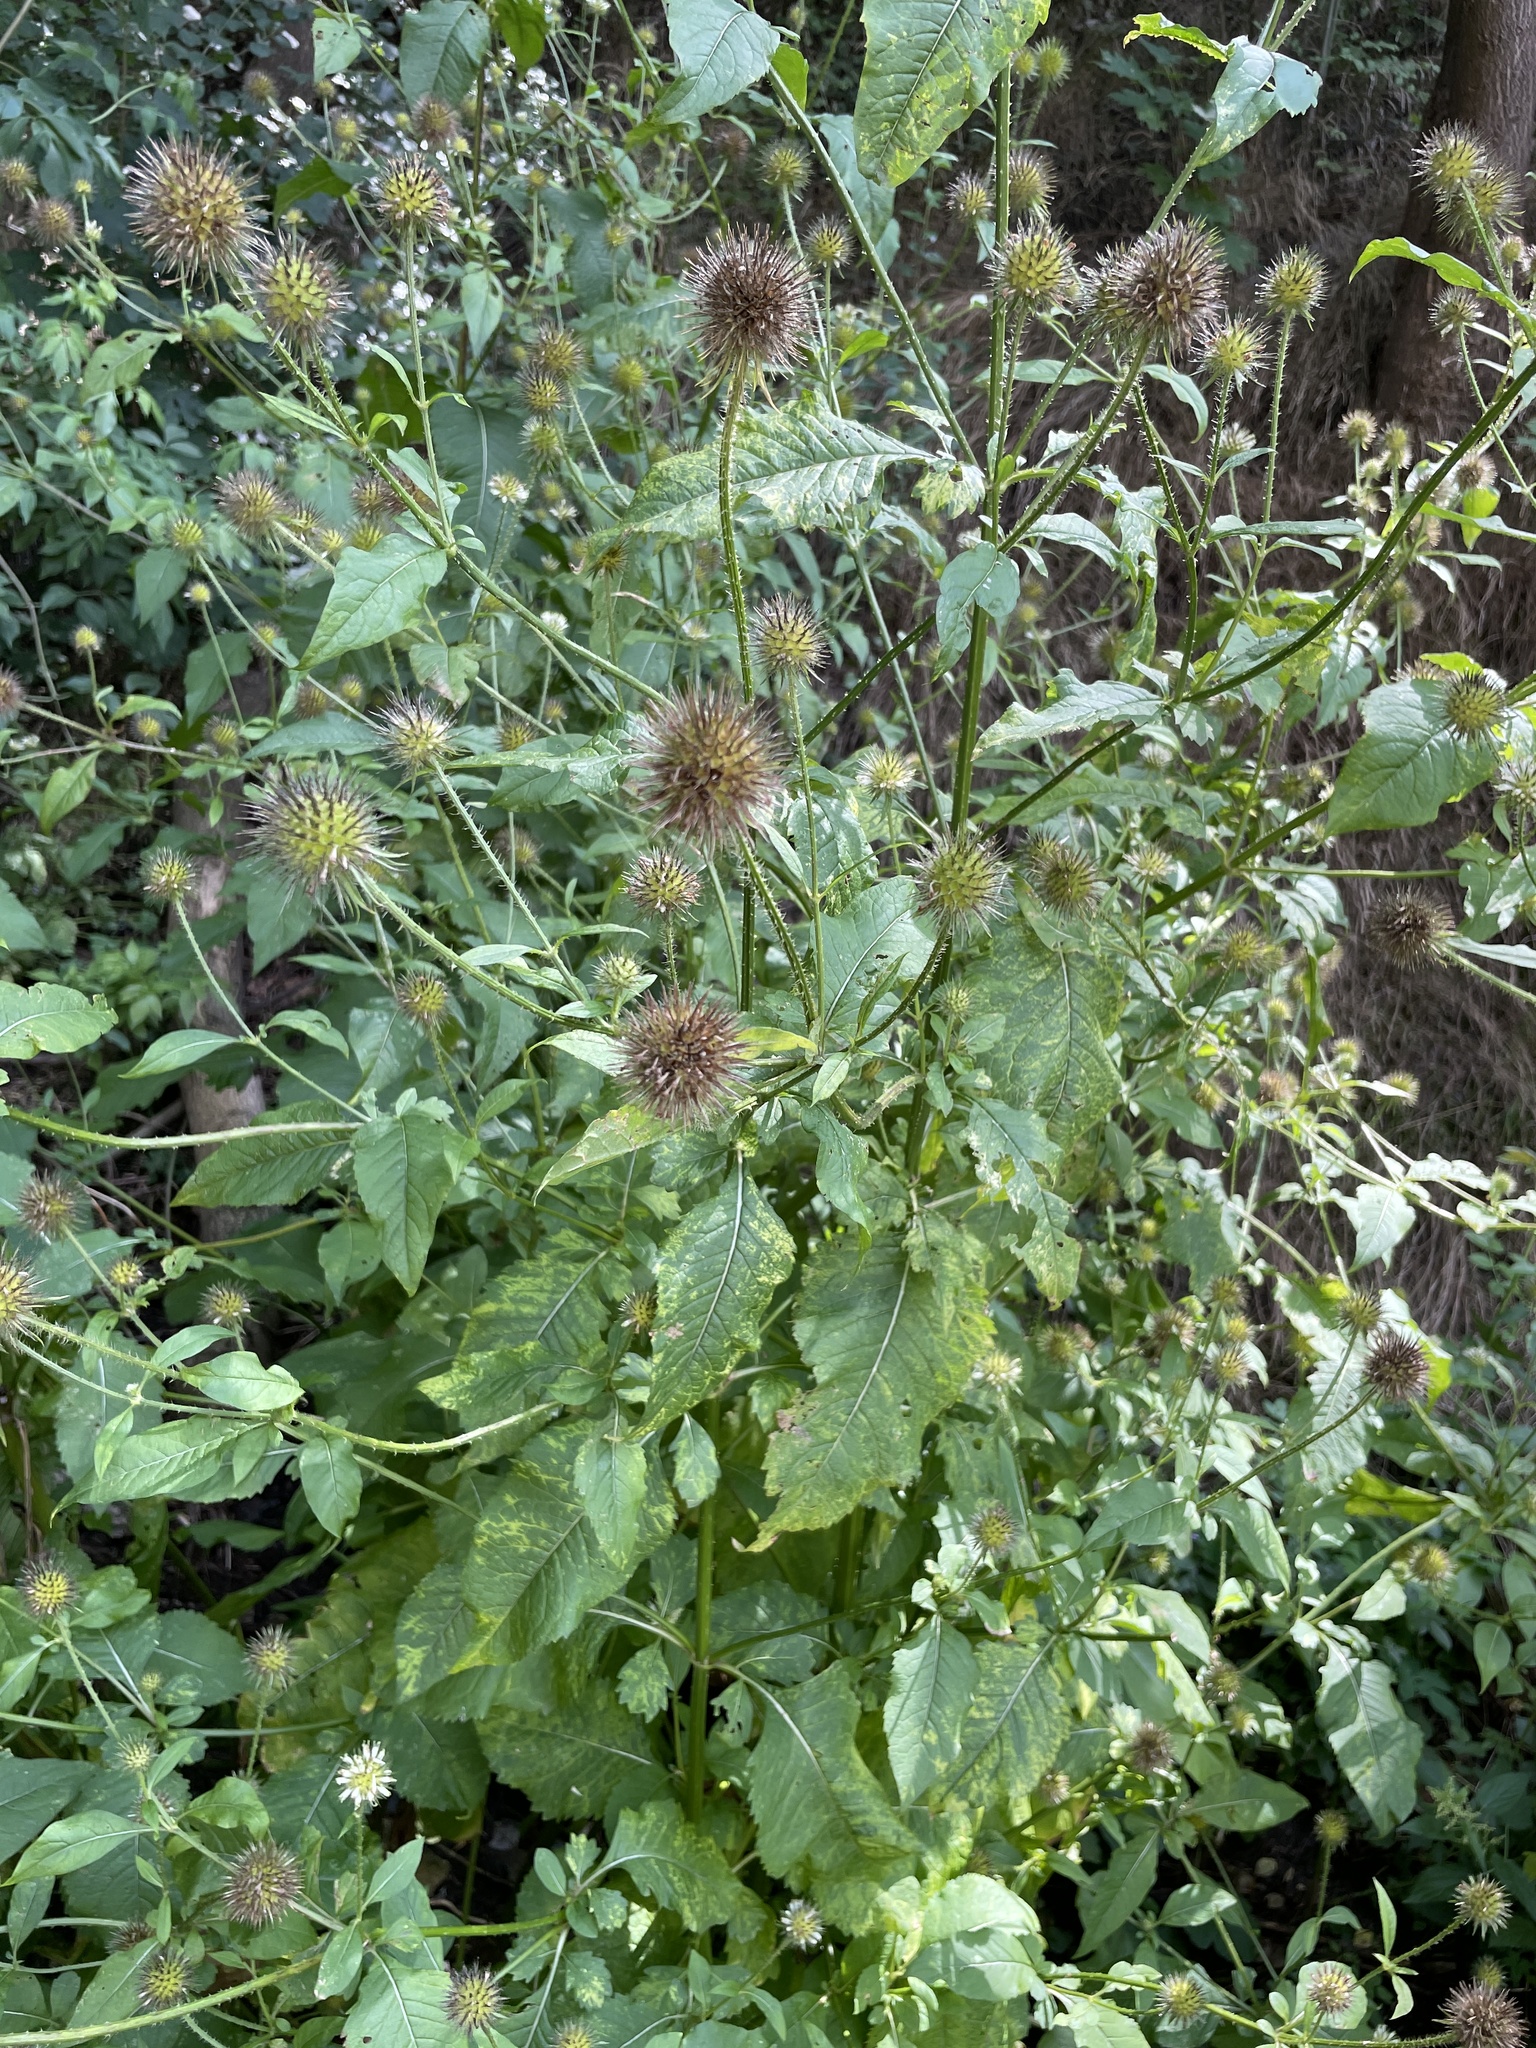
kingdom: Plantae
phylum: Tracheophyta
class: Magnoliopsida
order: Dipsacales
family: Caprifoliaceae
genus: Dipsacus
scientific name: Dipsacus strigosus
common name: Yellow-flowered teasel
